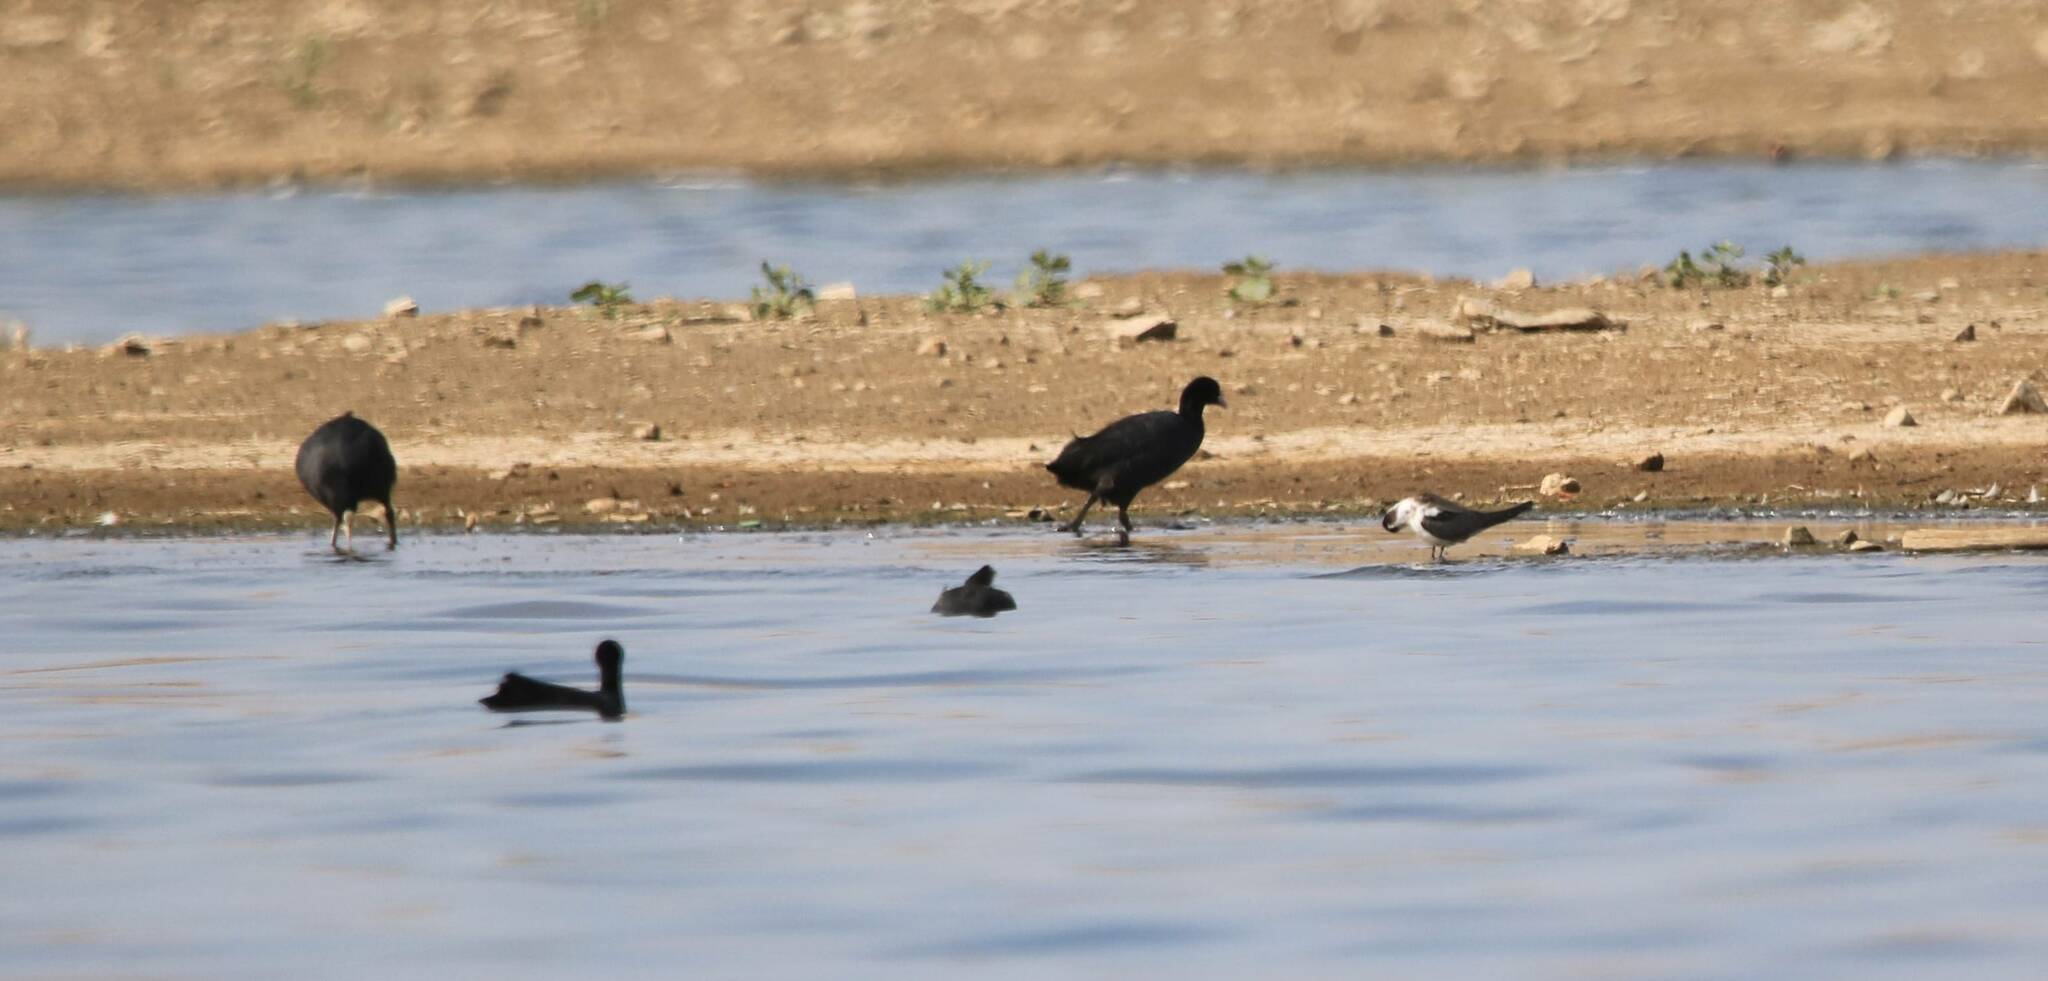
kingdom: Animalia
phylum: Chordata
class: Aves
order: Gruiformes
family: Rallidae
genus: Fulica
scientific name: Fulica atra
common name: Eurasian coot
